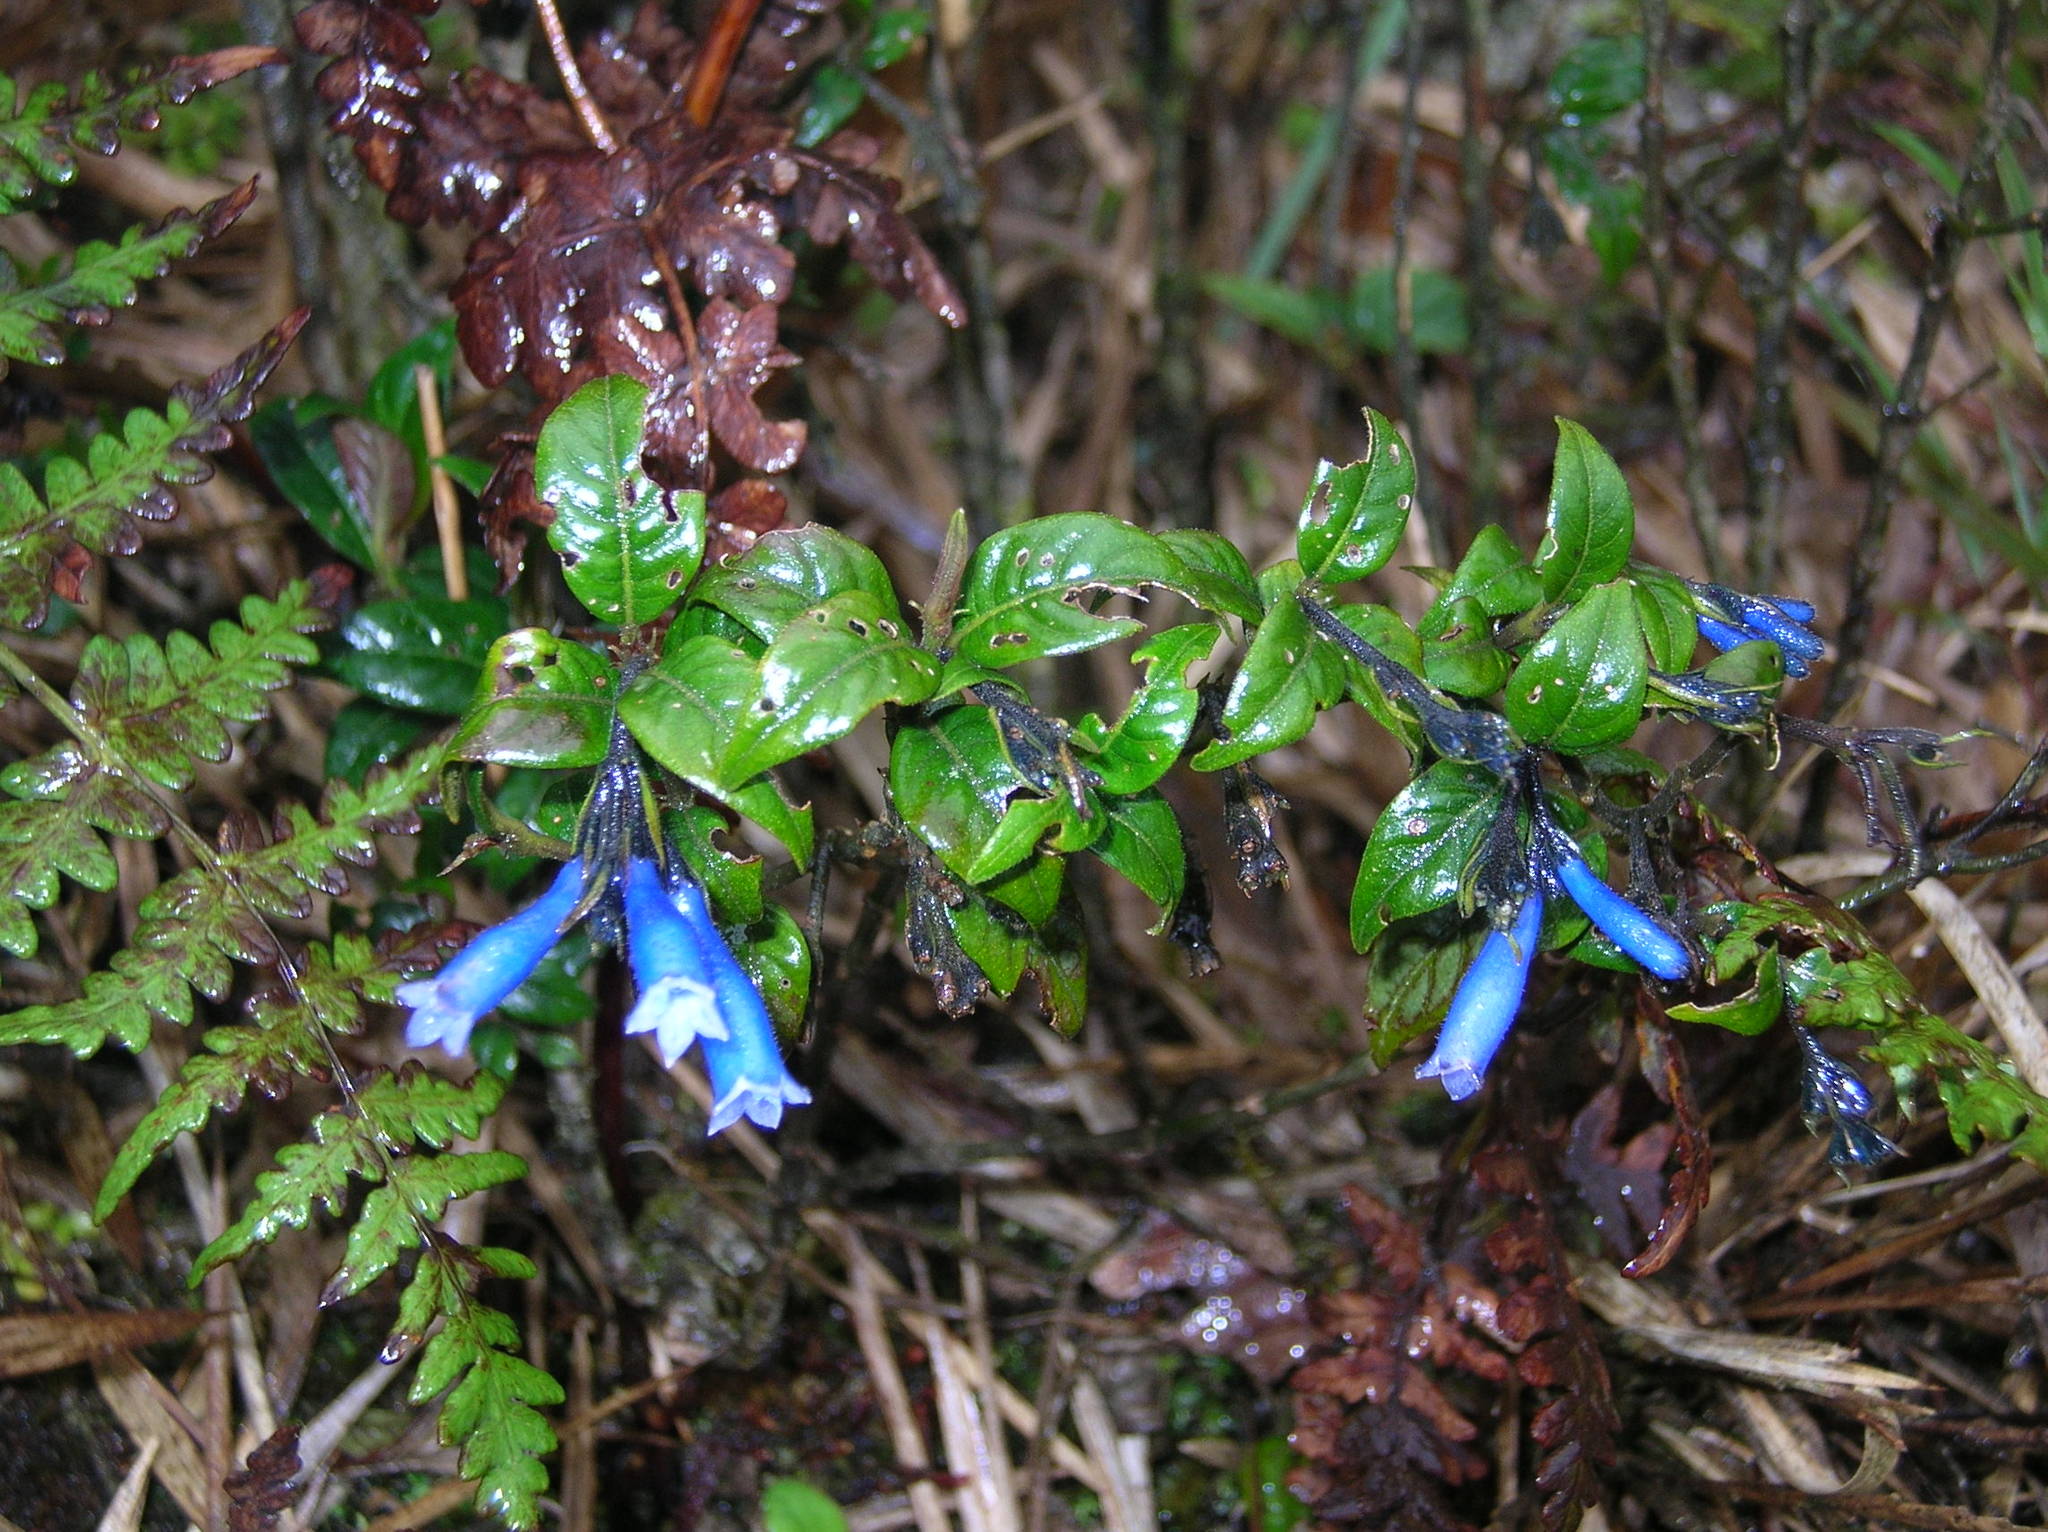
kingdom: Plantae
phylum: Tracheophyta
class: Magnoliopsida
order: Gentianales
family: Rubiaceae
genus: Palicourea
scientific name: Palicourea lobbii
